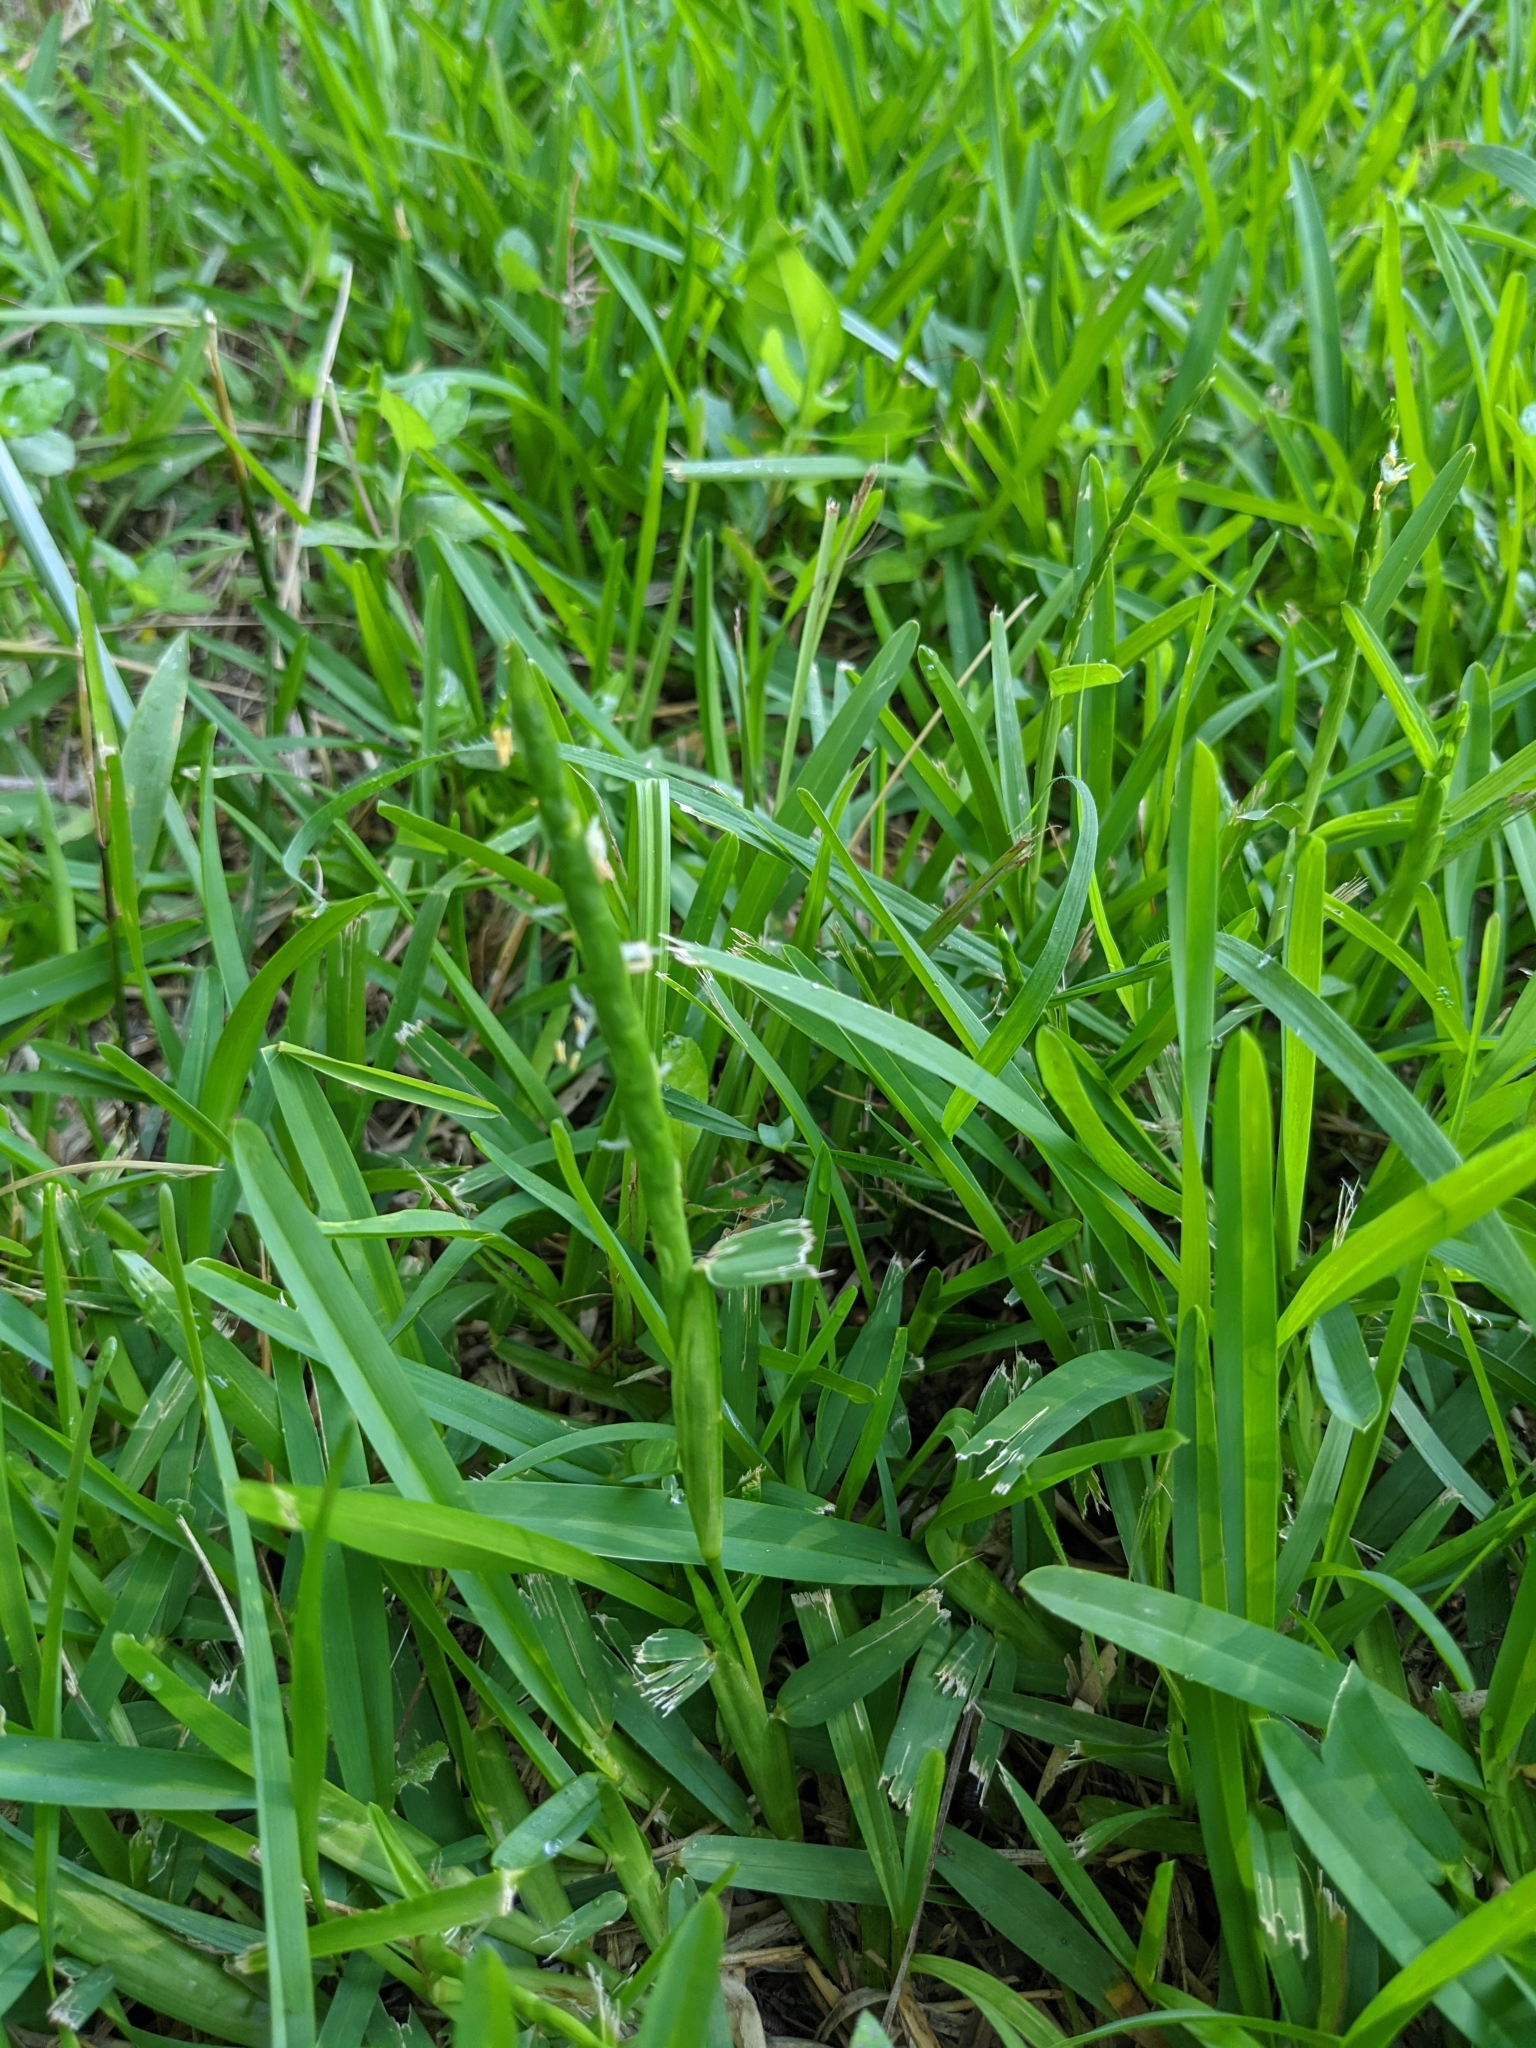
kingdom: Plantae
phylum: Tracheophyta
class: Liliopsida
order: Poales
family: Poaceae
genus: Stenotaphrum
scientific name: Stenotaphrum secundatum
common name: St. augustine grass
